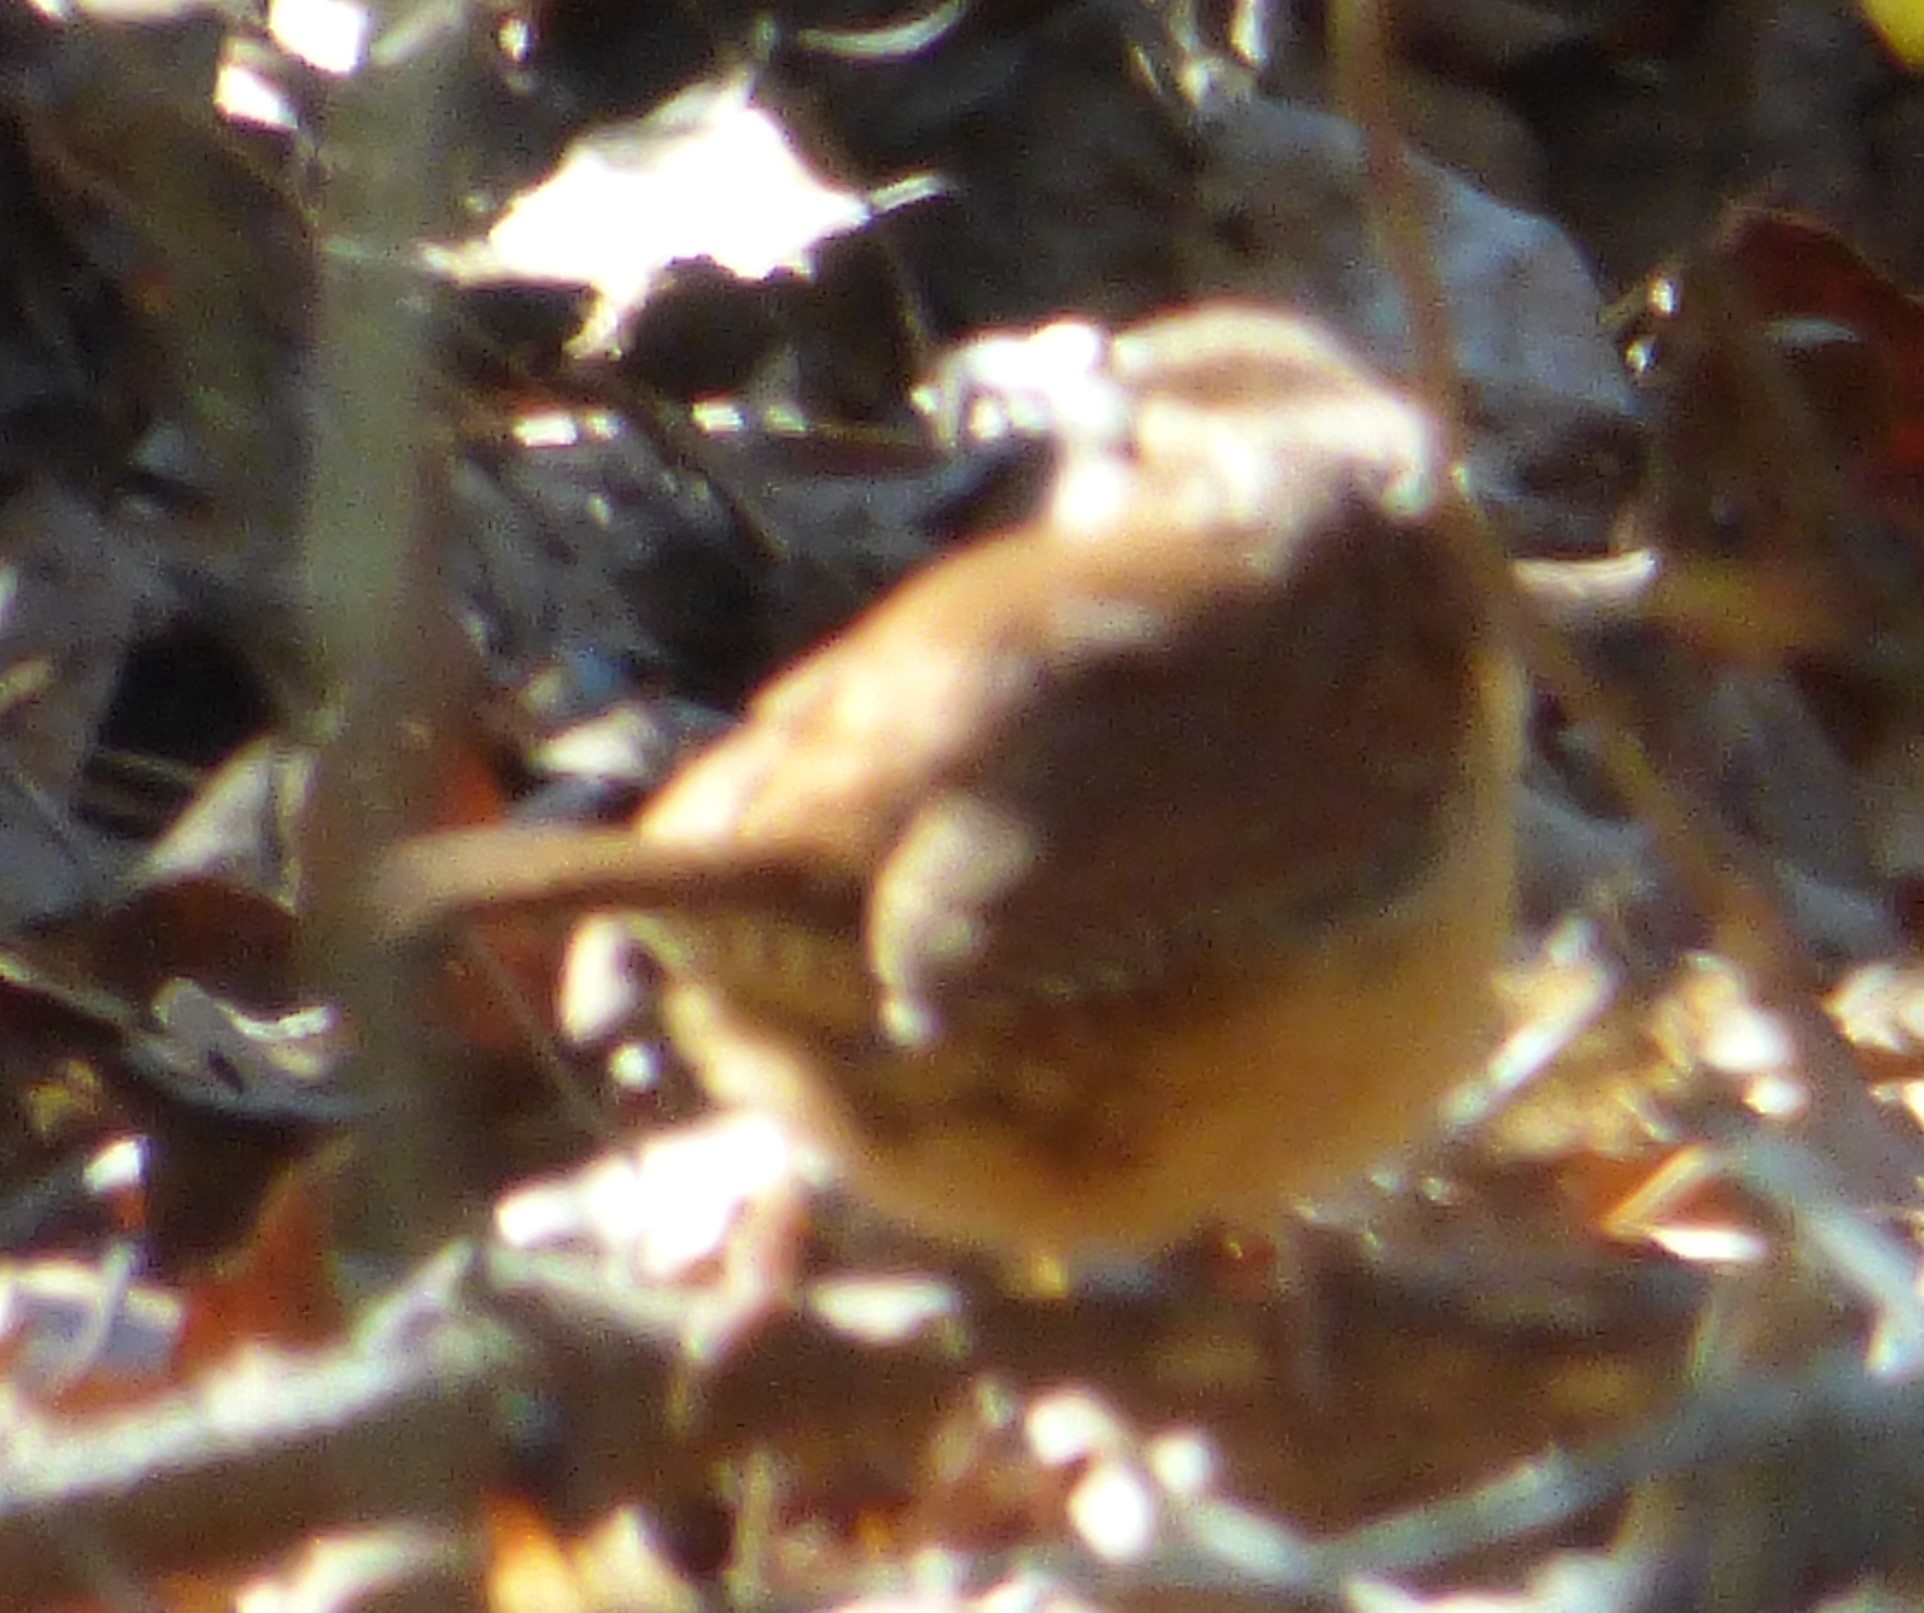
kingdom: Animalia
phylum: Chordata
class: Aves
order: Passeriformes
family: Troglodytidae
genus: Thryothorus
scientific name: Thryothorus ludovicianus
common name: Carolina wren
